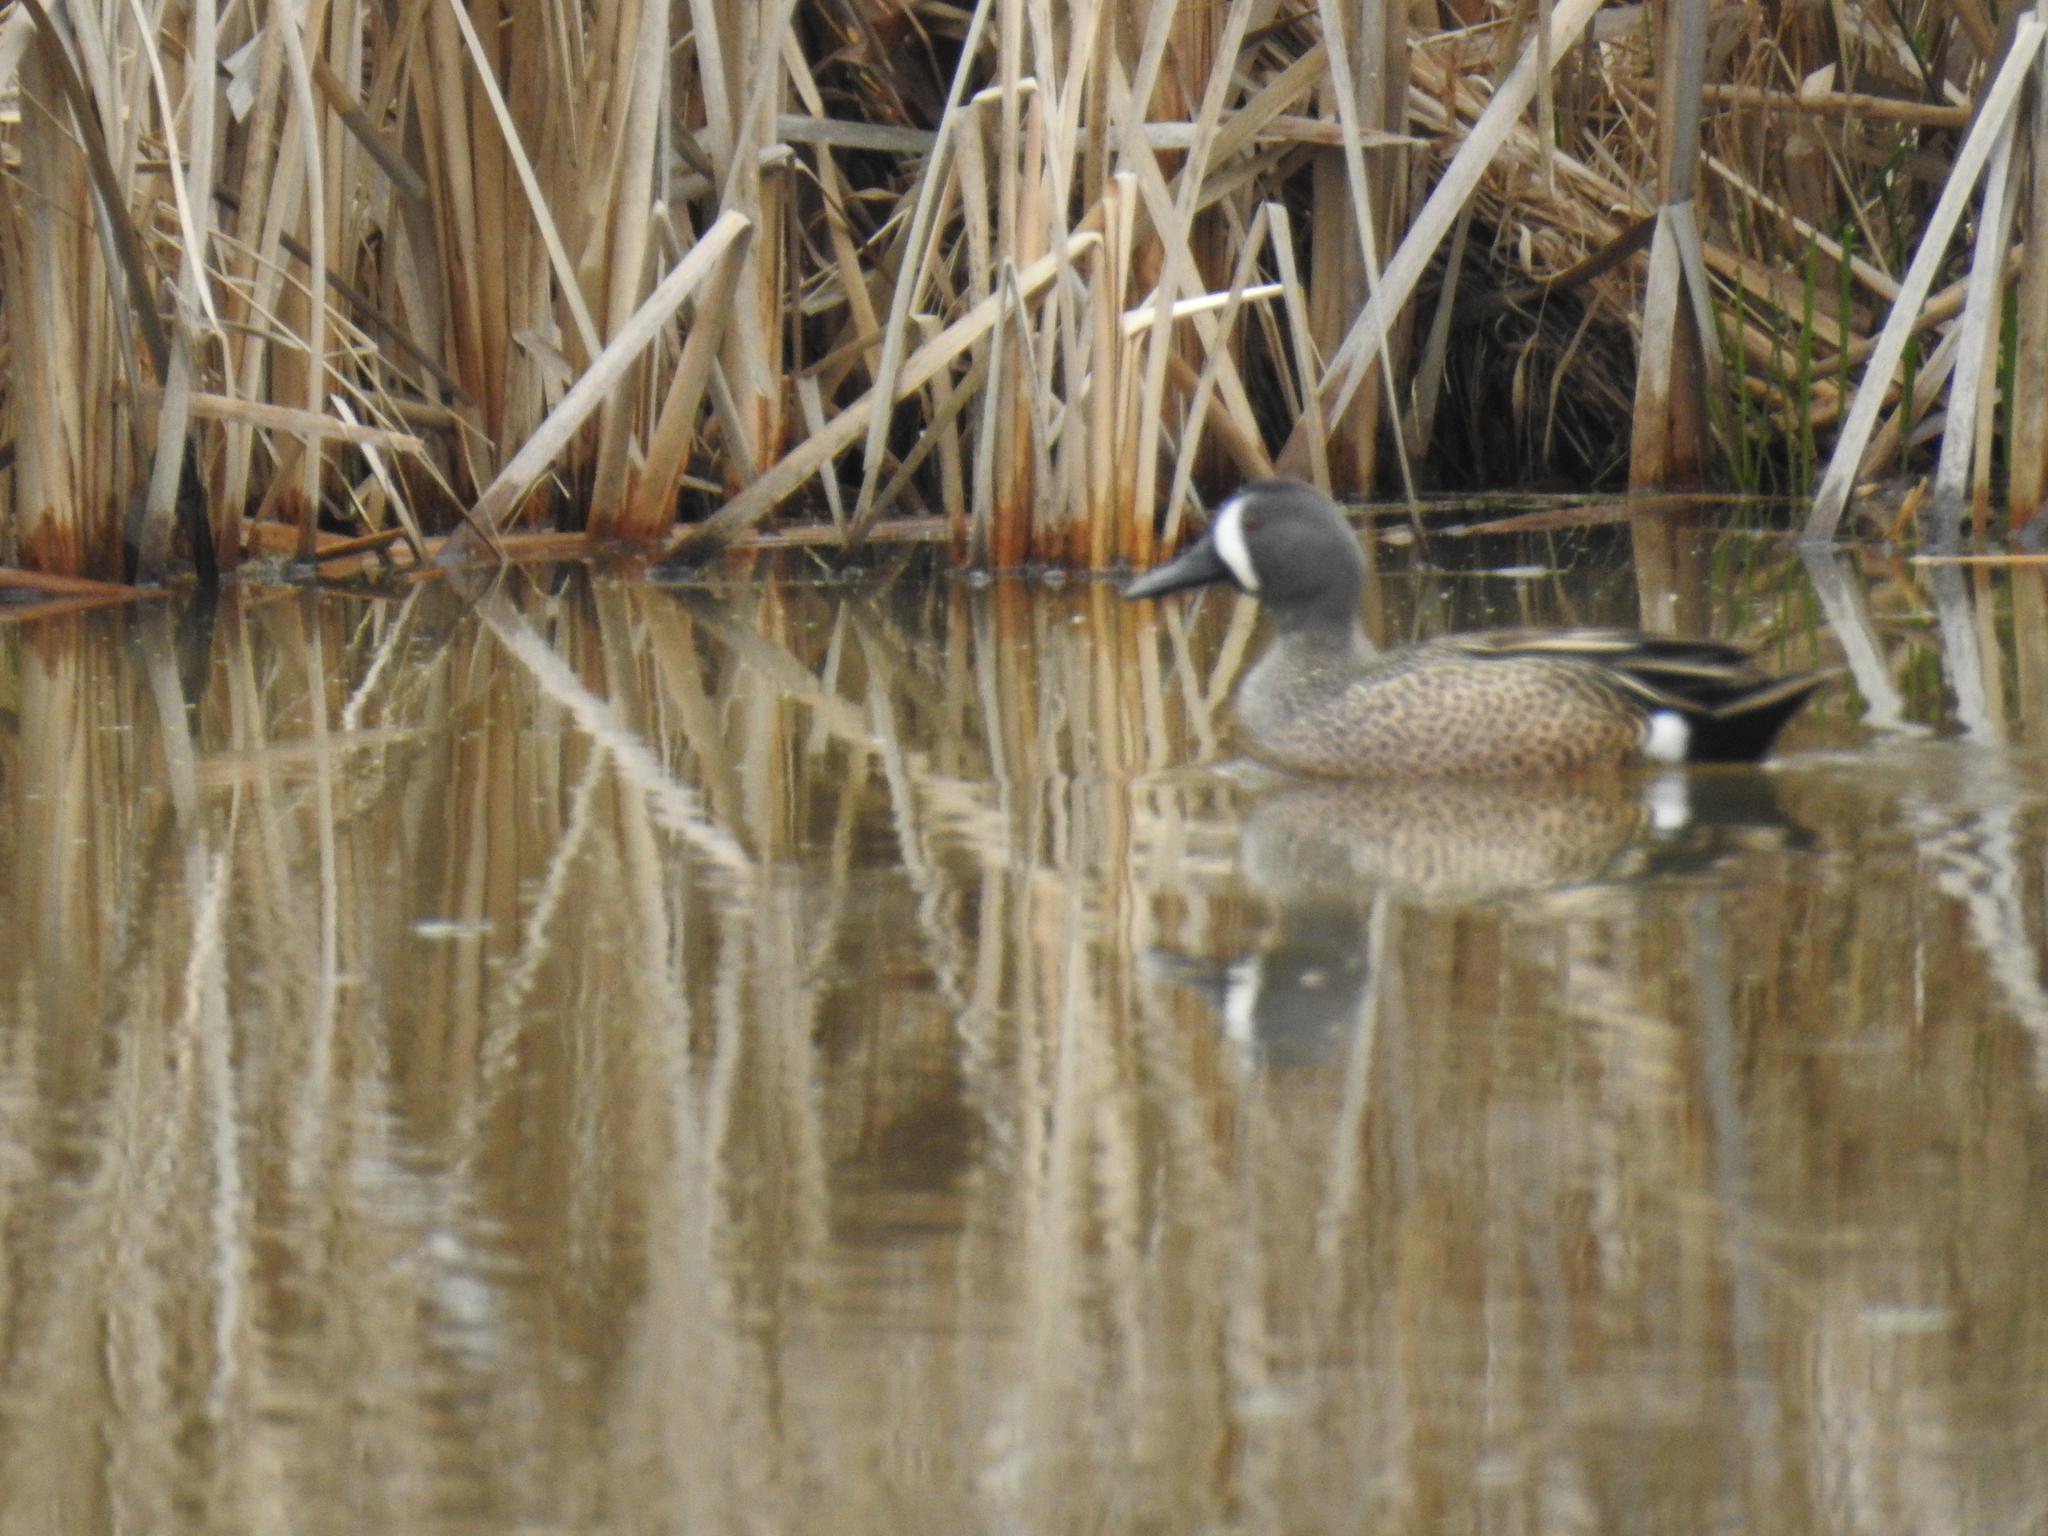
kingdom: Animalia
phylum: Chordata
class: Aves
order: Anseriformes
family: Anatidae
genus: Spatula
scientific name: Spatula discors
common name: Blue-winged teal
